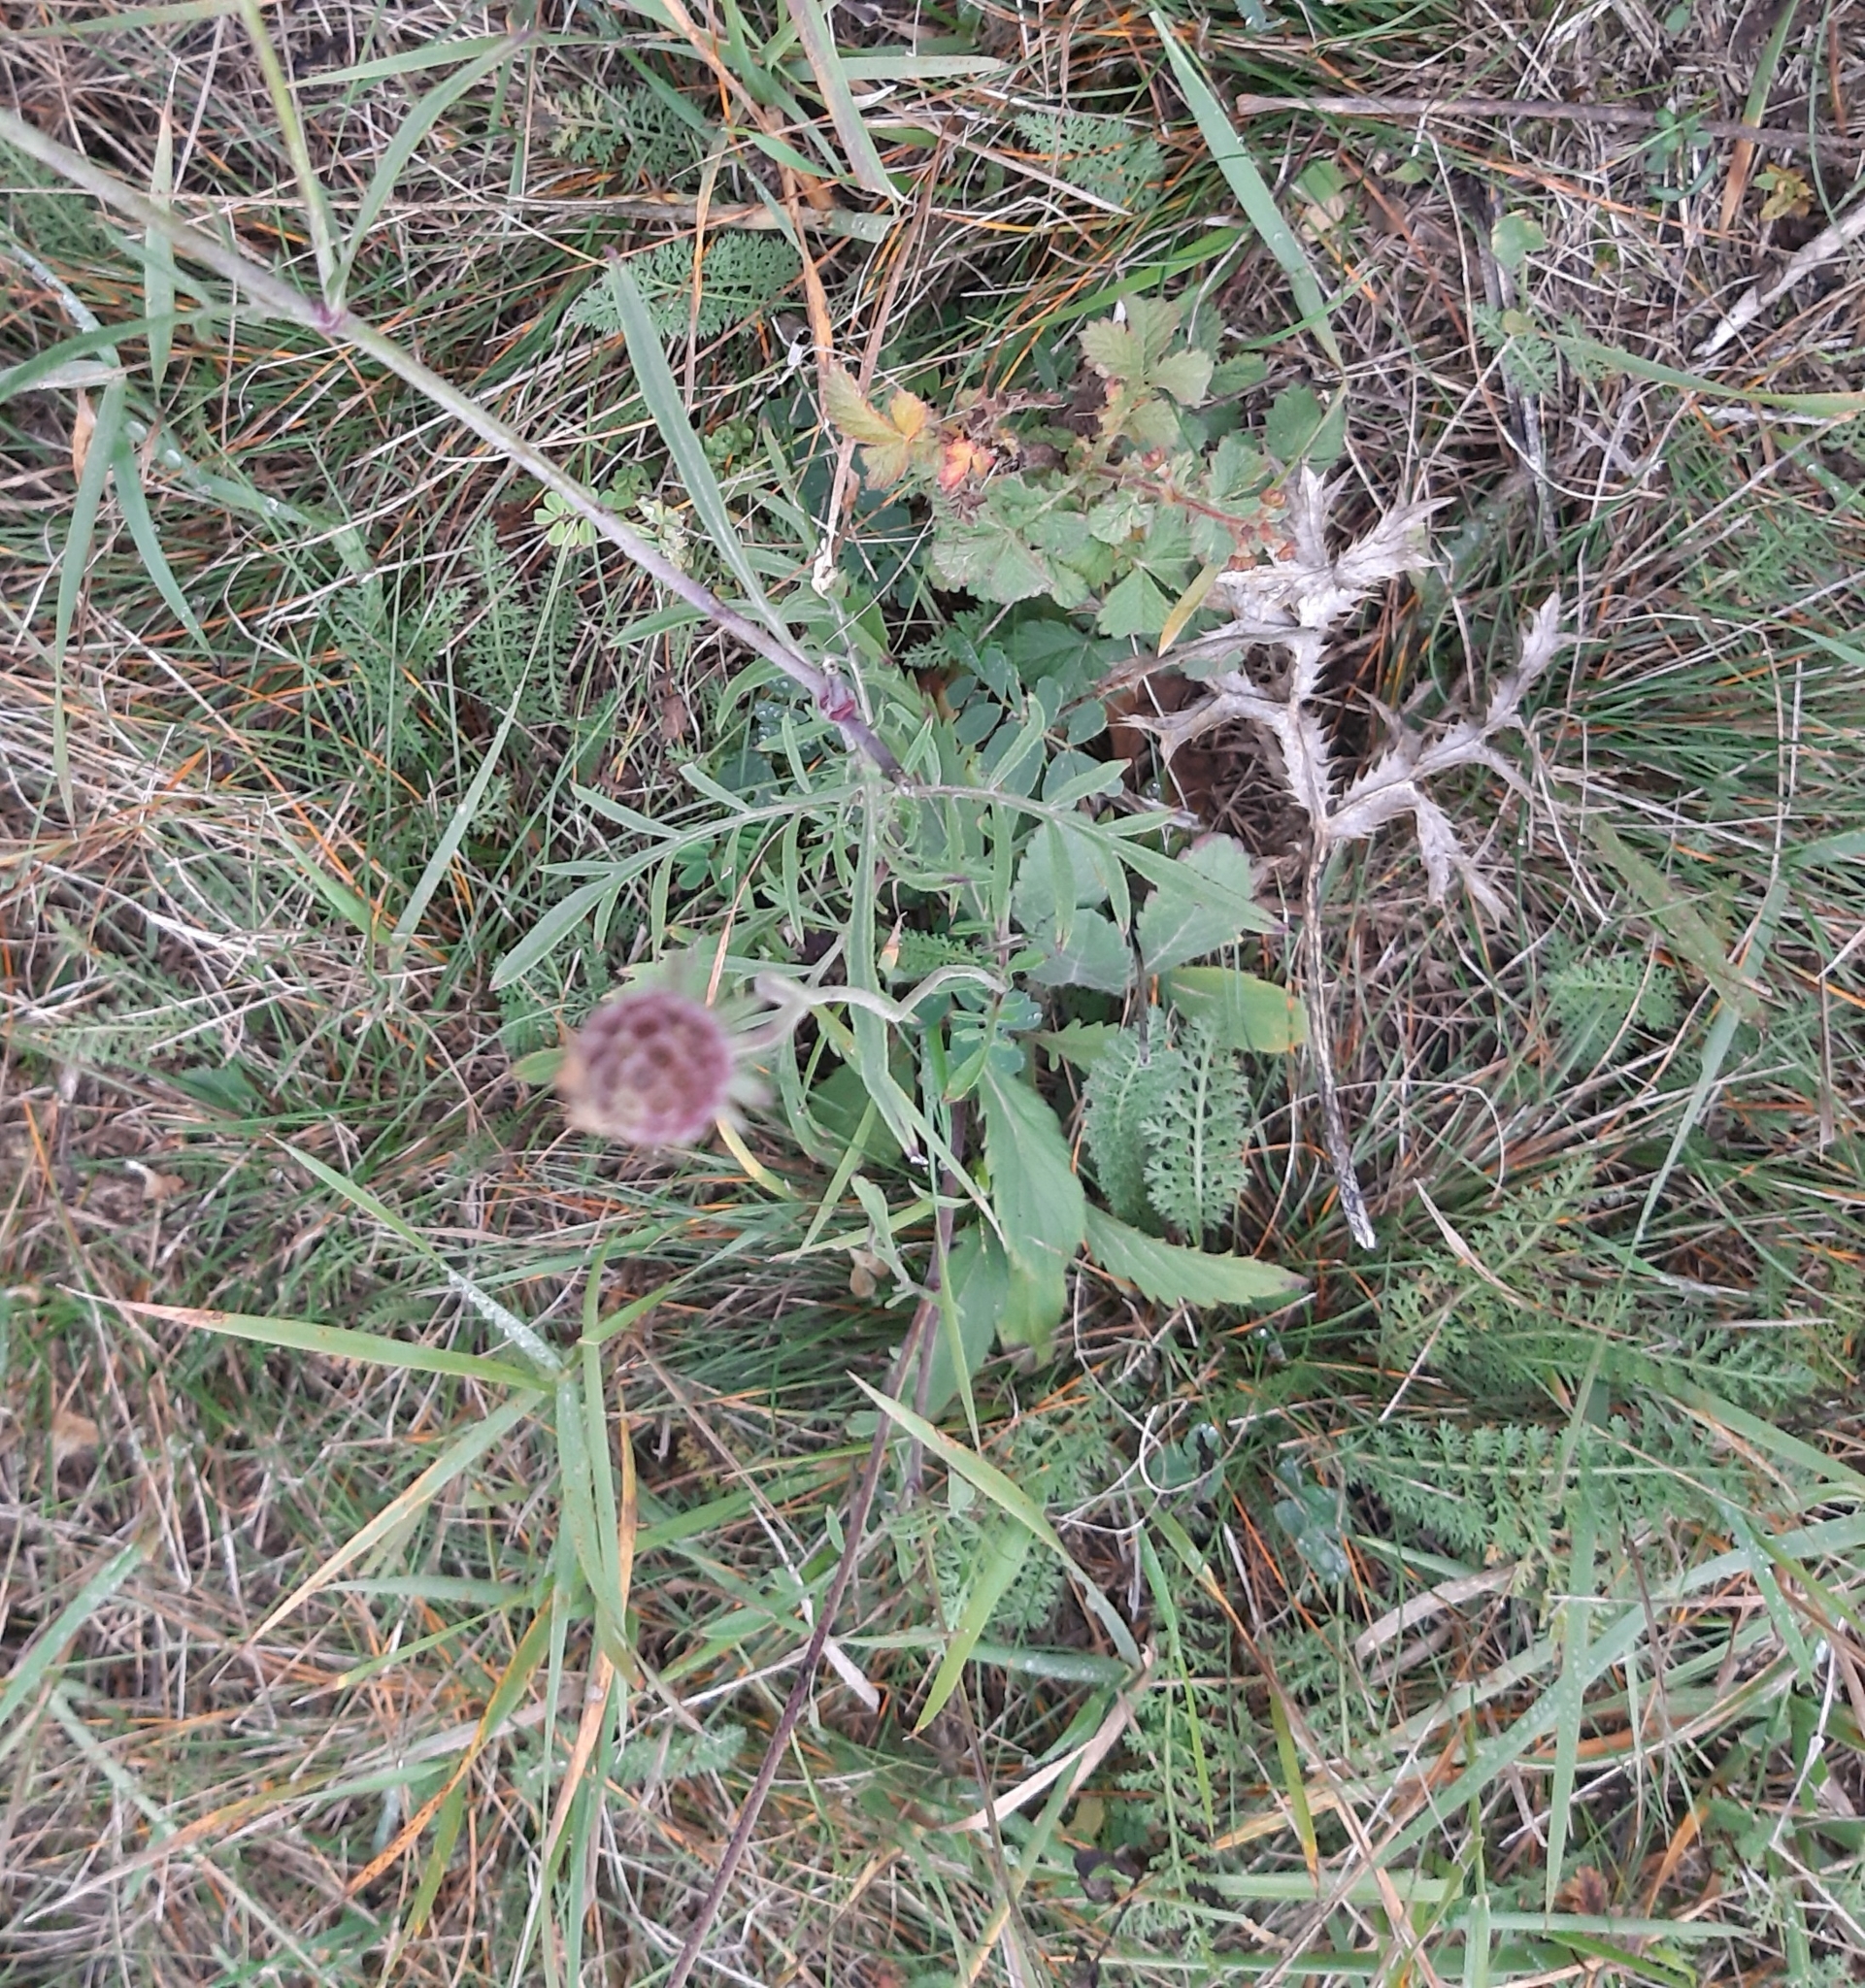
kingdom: Plantae
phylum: Tracheophyta
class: Magnoliopsida
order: Dipsacales
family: Caprifoliaceae
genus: Scabiosa
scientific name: Scabiosa ochroleuca
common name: Cream pincushions
